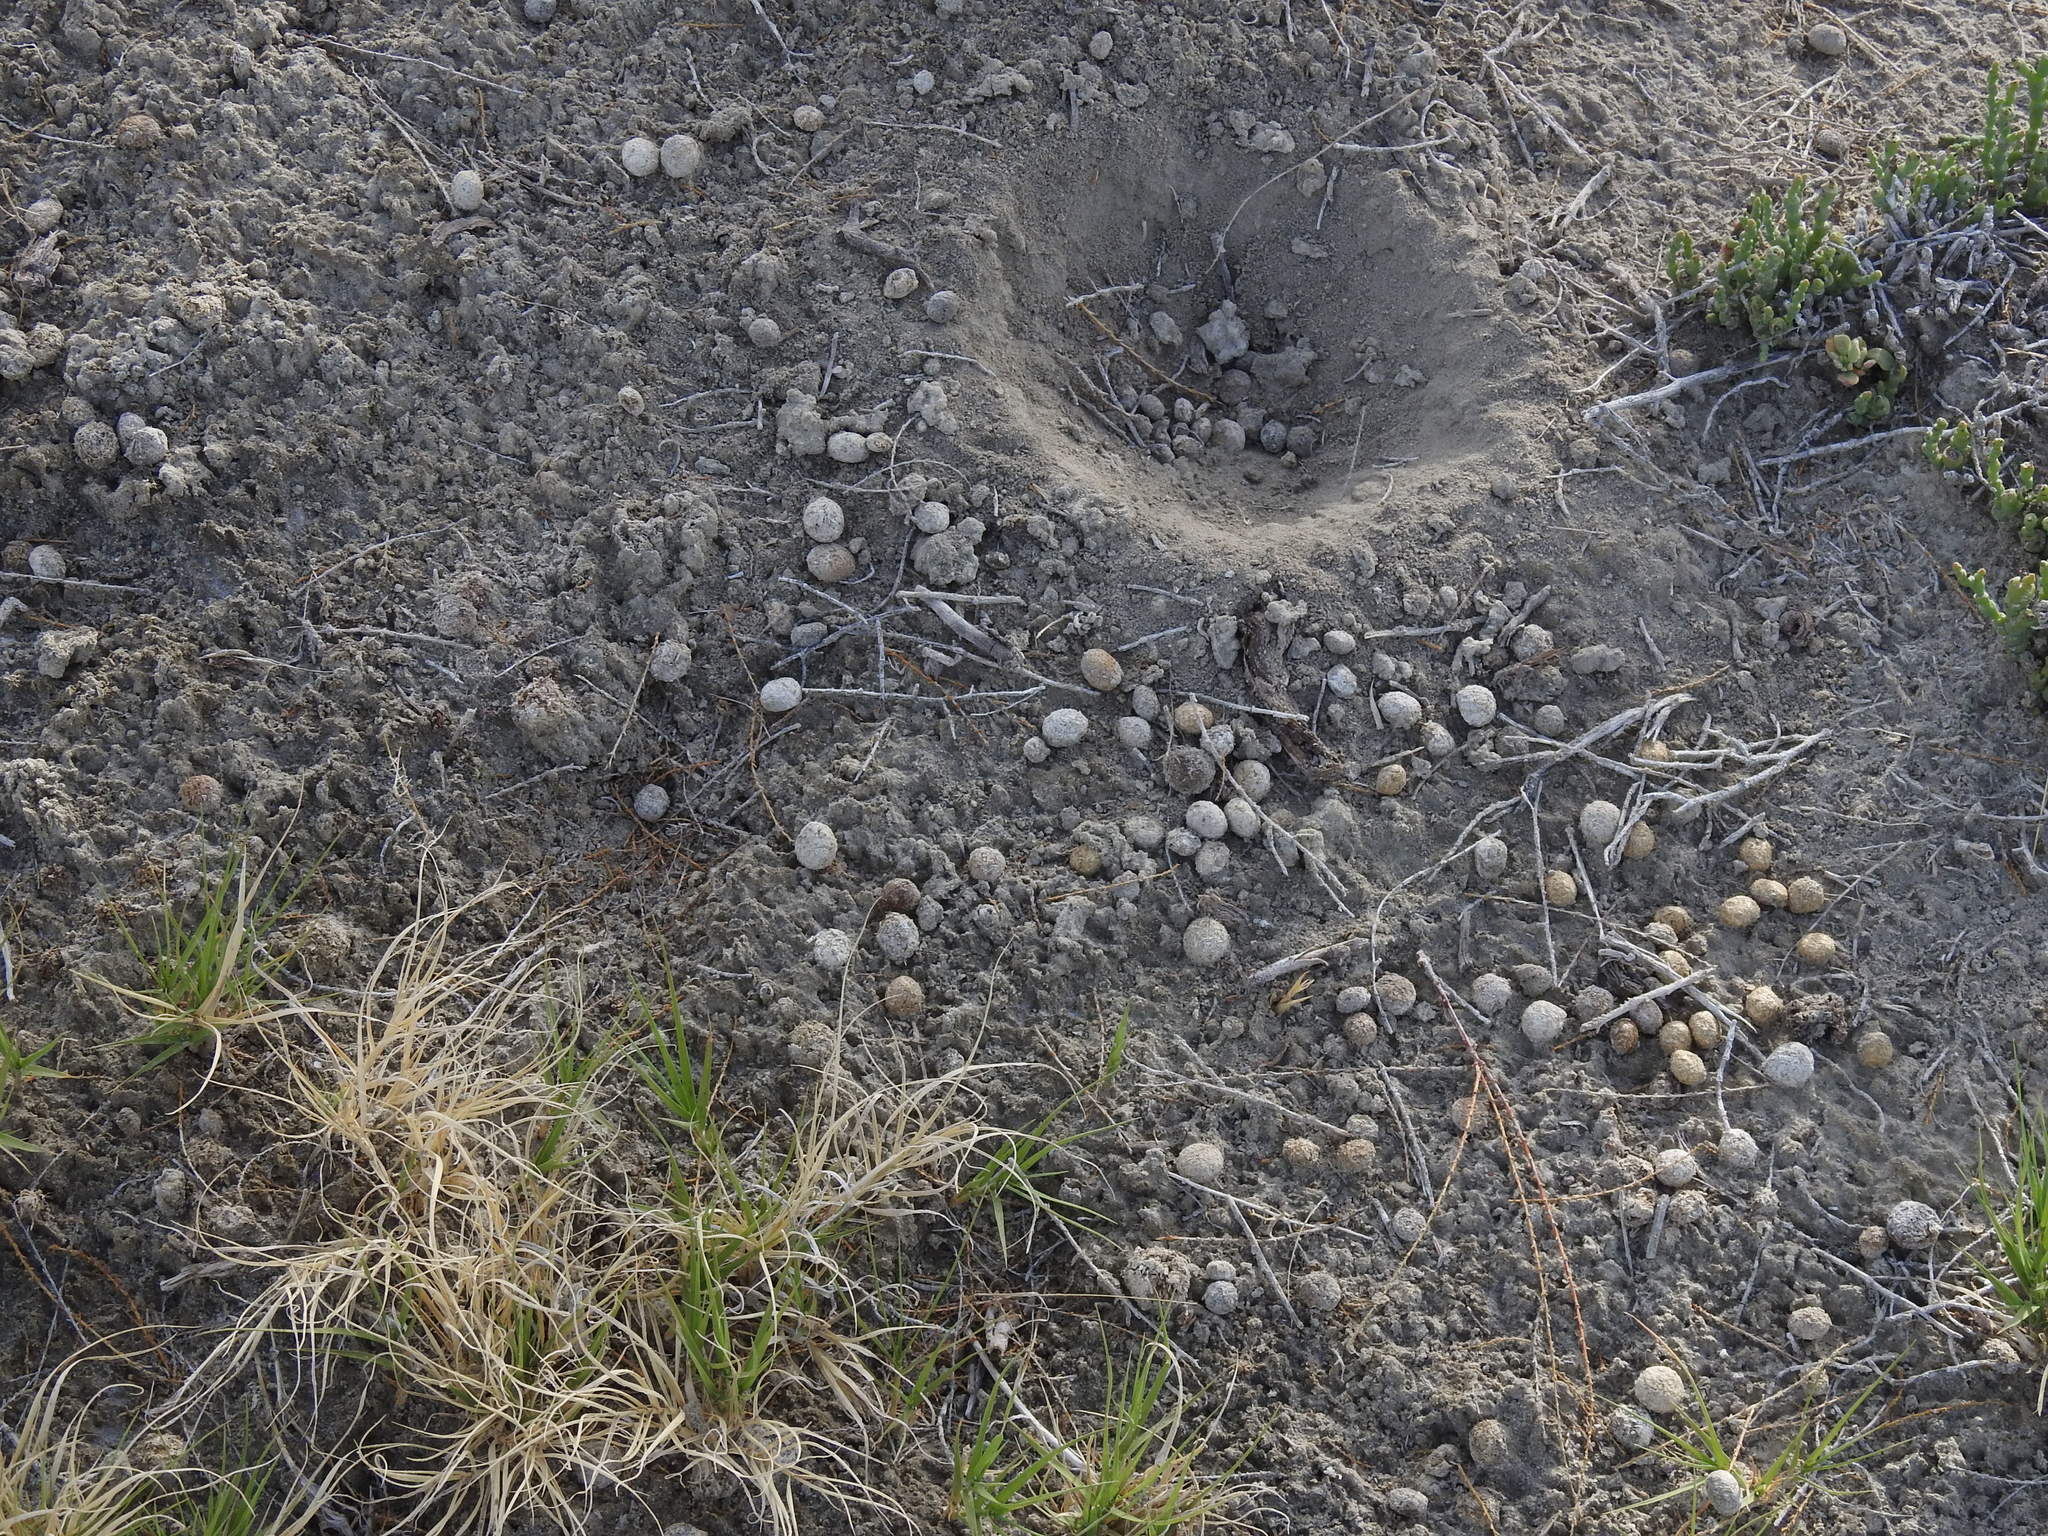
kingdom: Animalia
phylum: Chordata
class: Mammalia
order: Lagomorpha
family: Leporidae
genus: Lepus
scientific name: Lepus californicus
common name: Black-tailed jackrabbit
